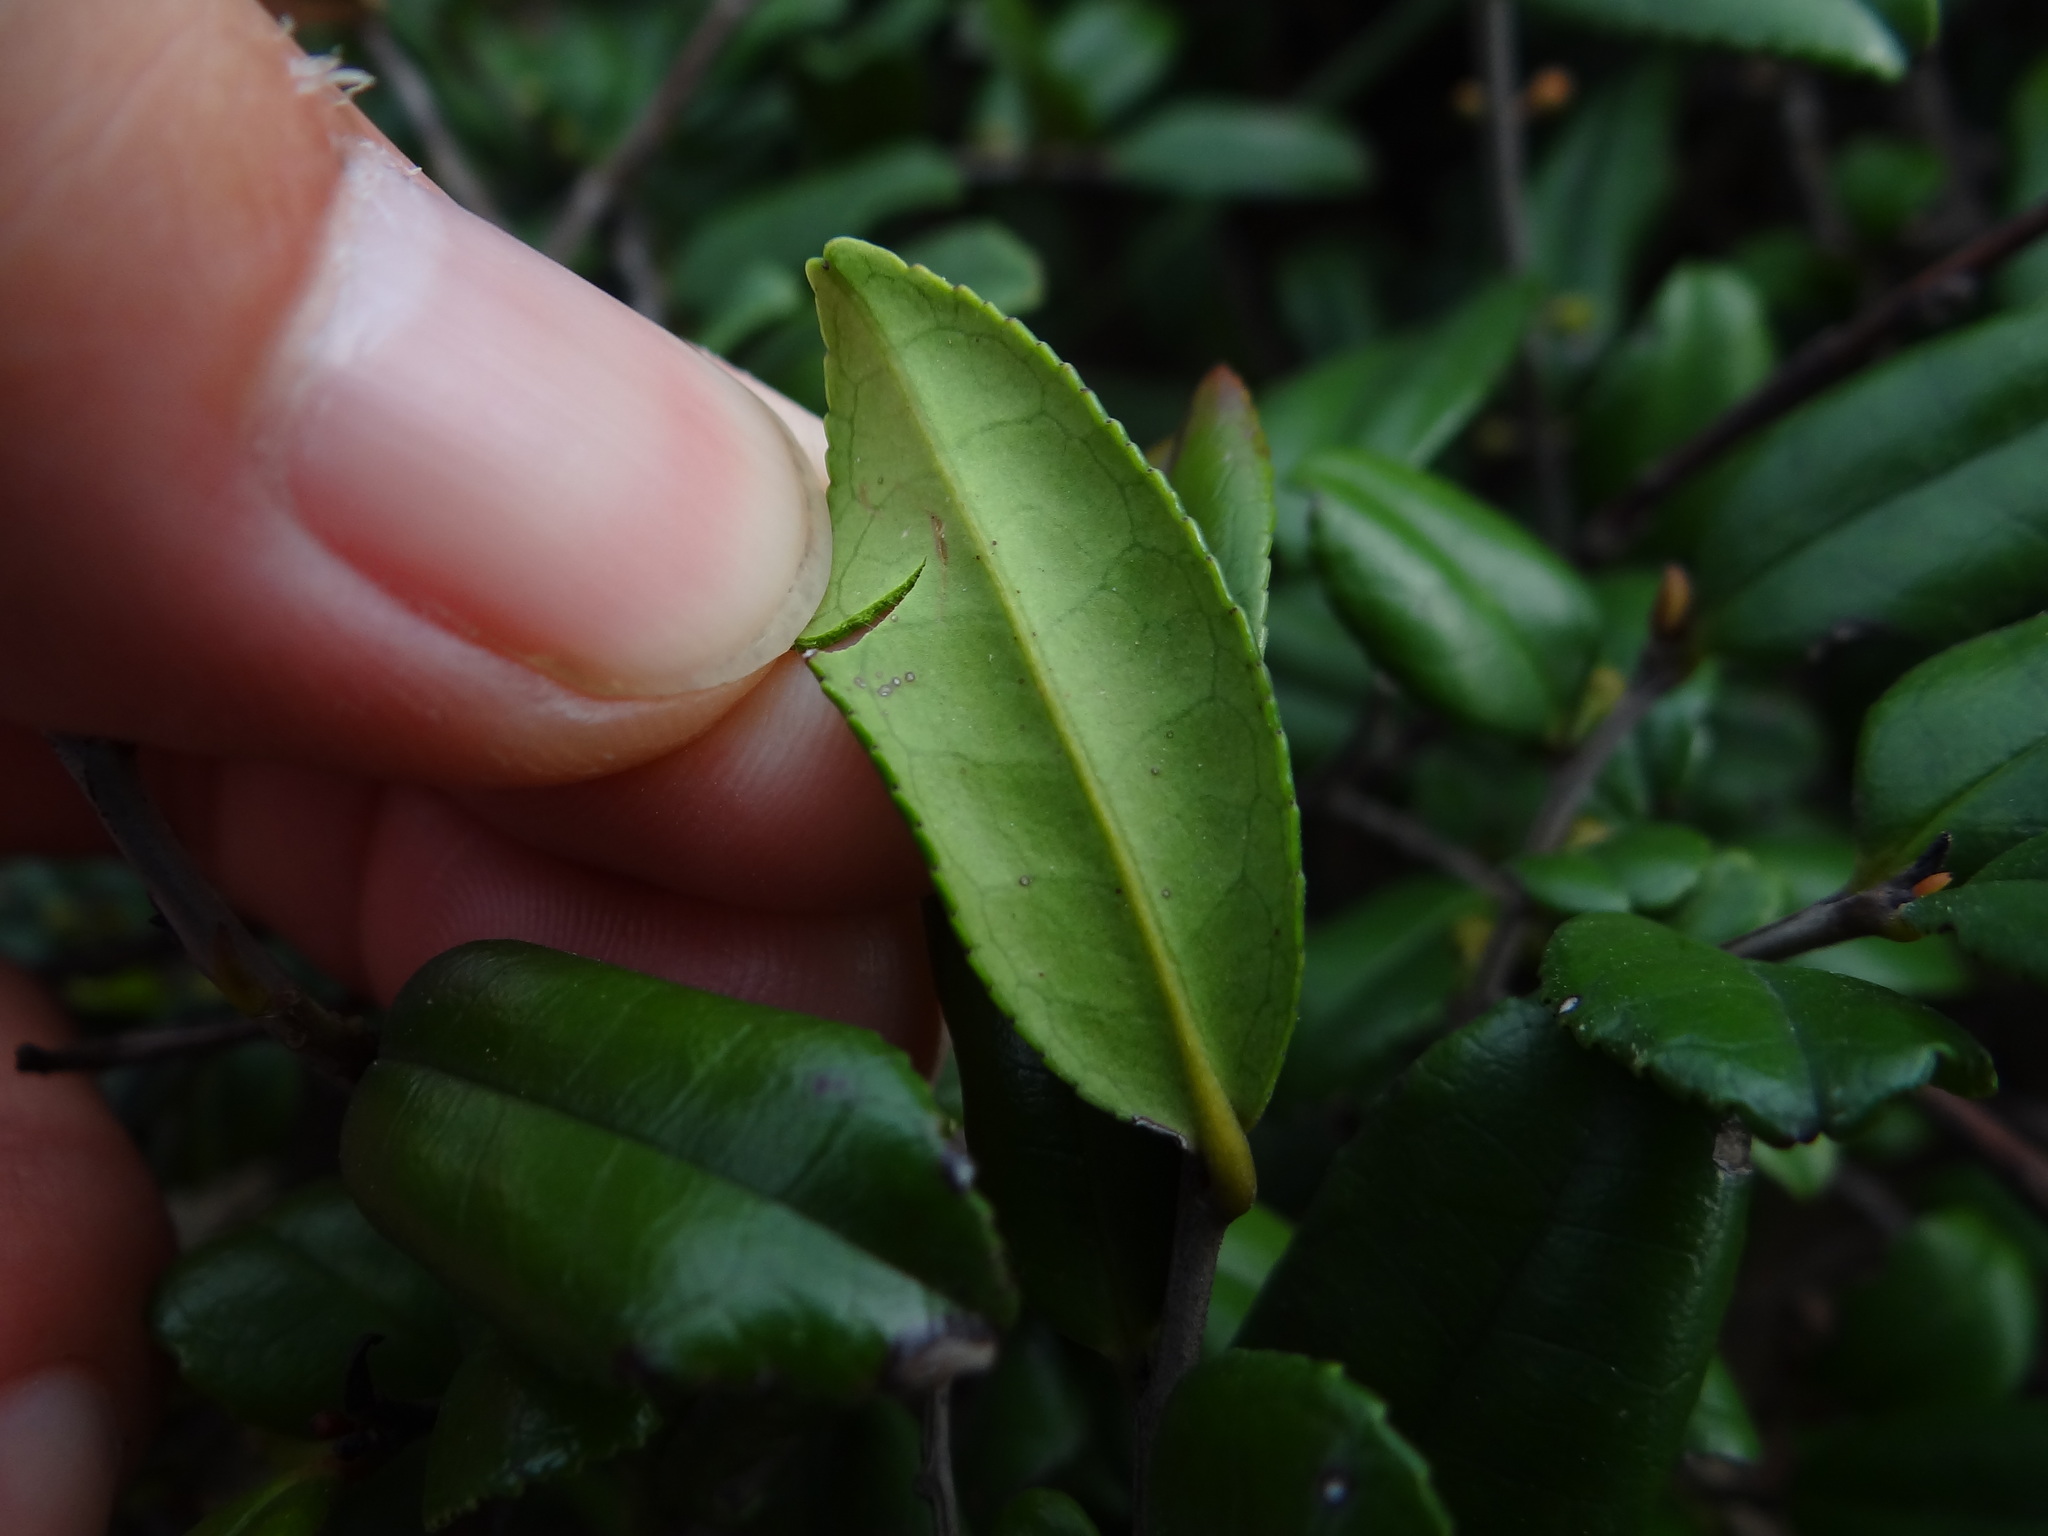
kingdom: Plantae
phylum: Tracheophyta
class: Magnoliopsida
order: Ericales
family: Pentaphylacaceae
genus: Eurya
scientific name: Eurya emarginata
